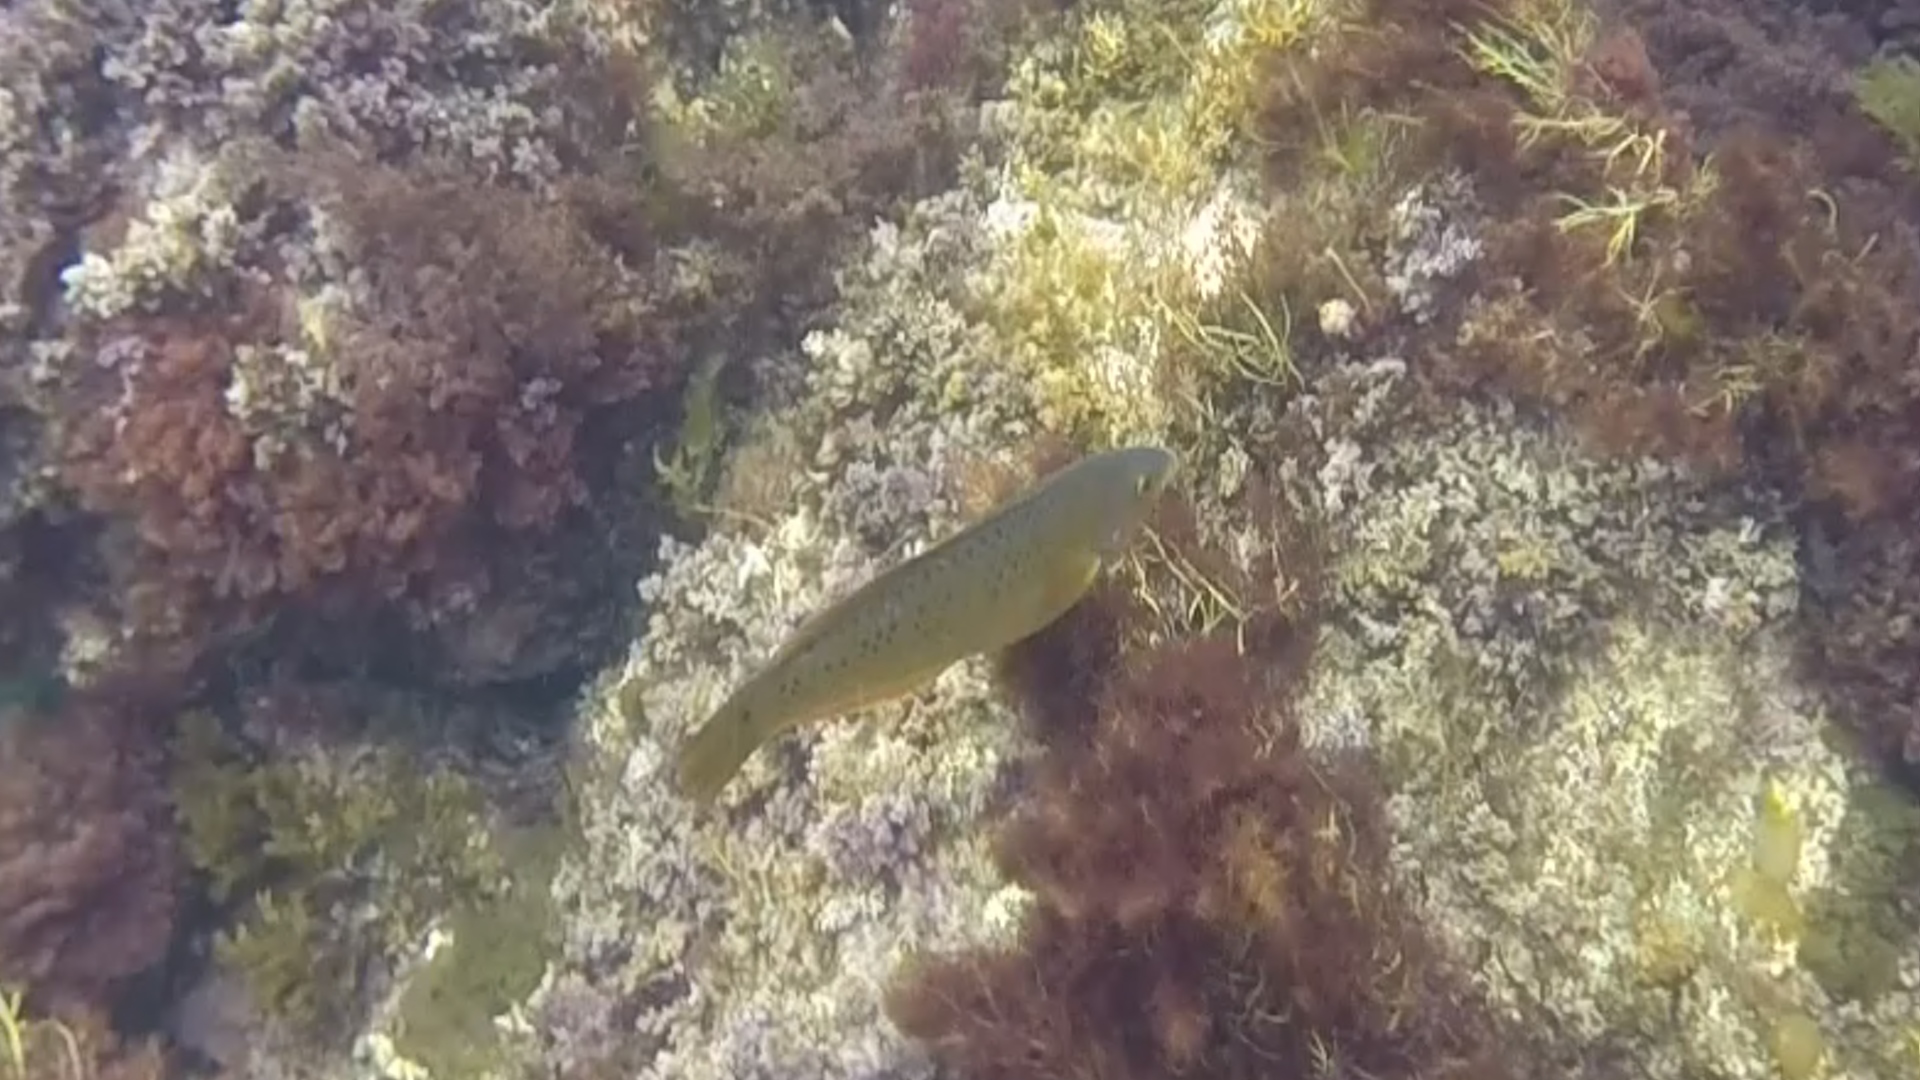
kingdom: Animalia
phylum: Chordata
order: Perciformes
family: Labridae
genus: Halichoeres
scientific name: Halichoeres semicinctus
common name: Rock wrasse
